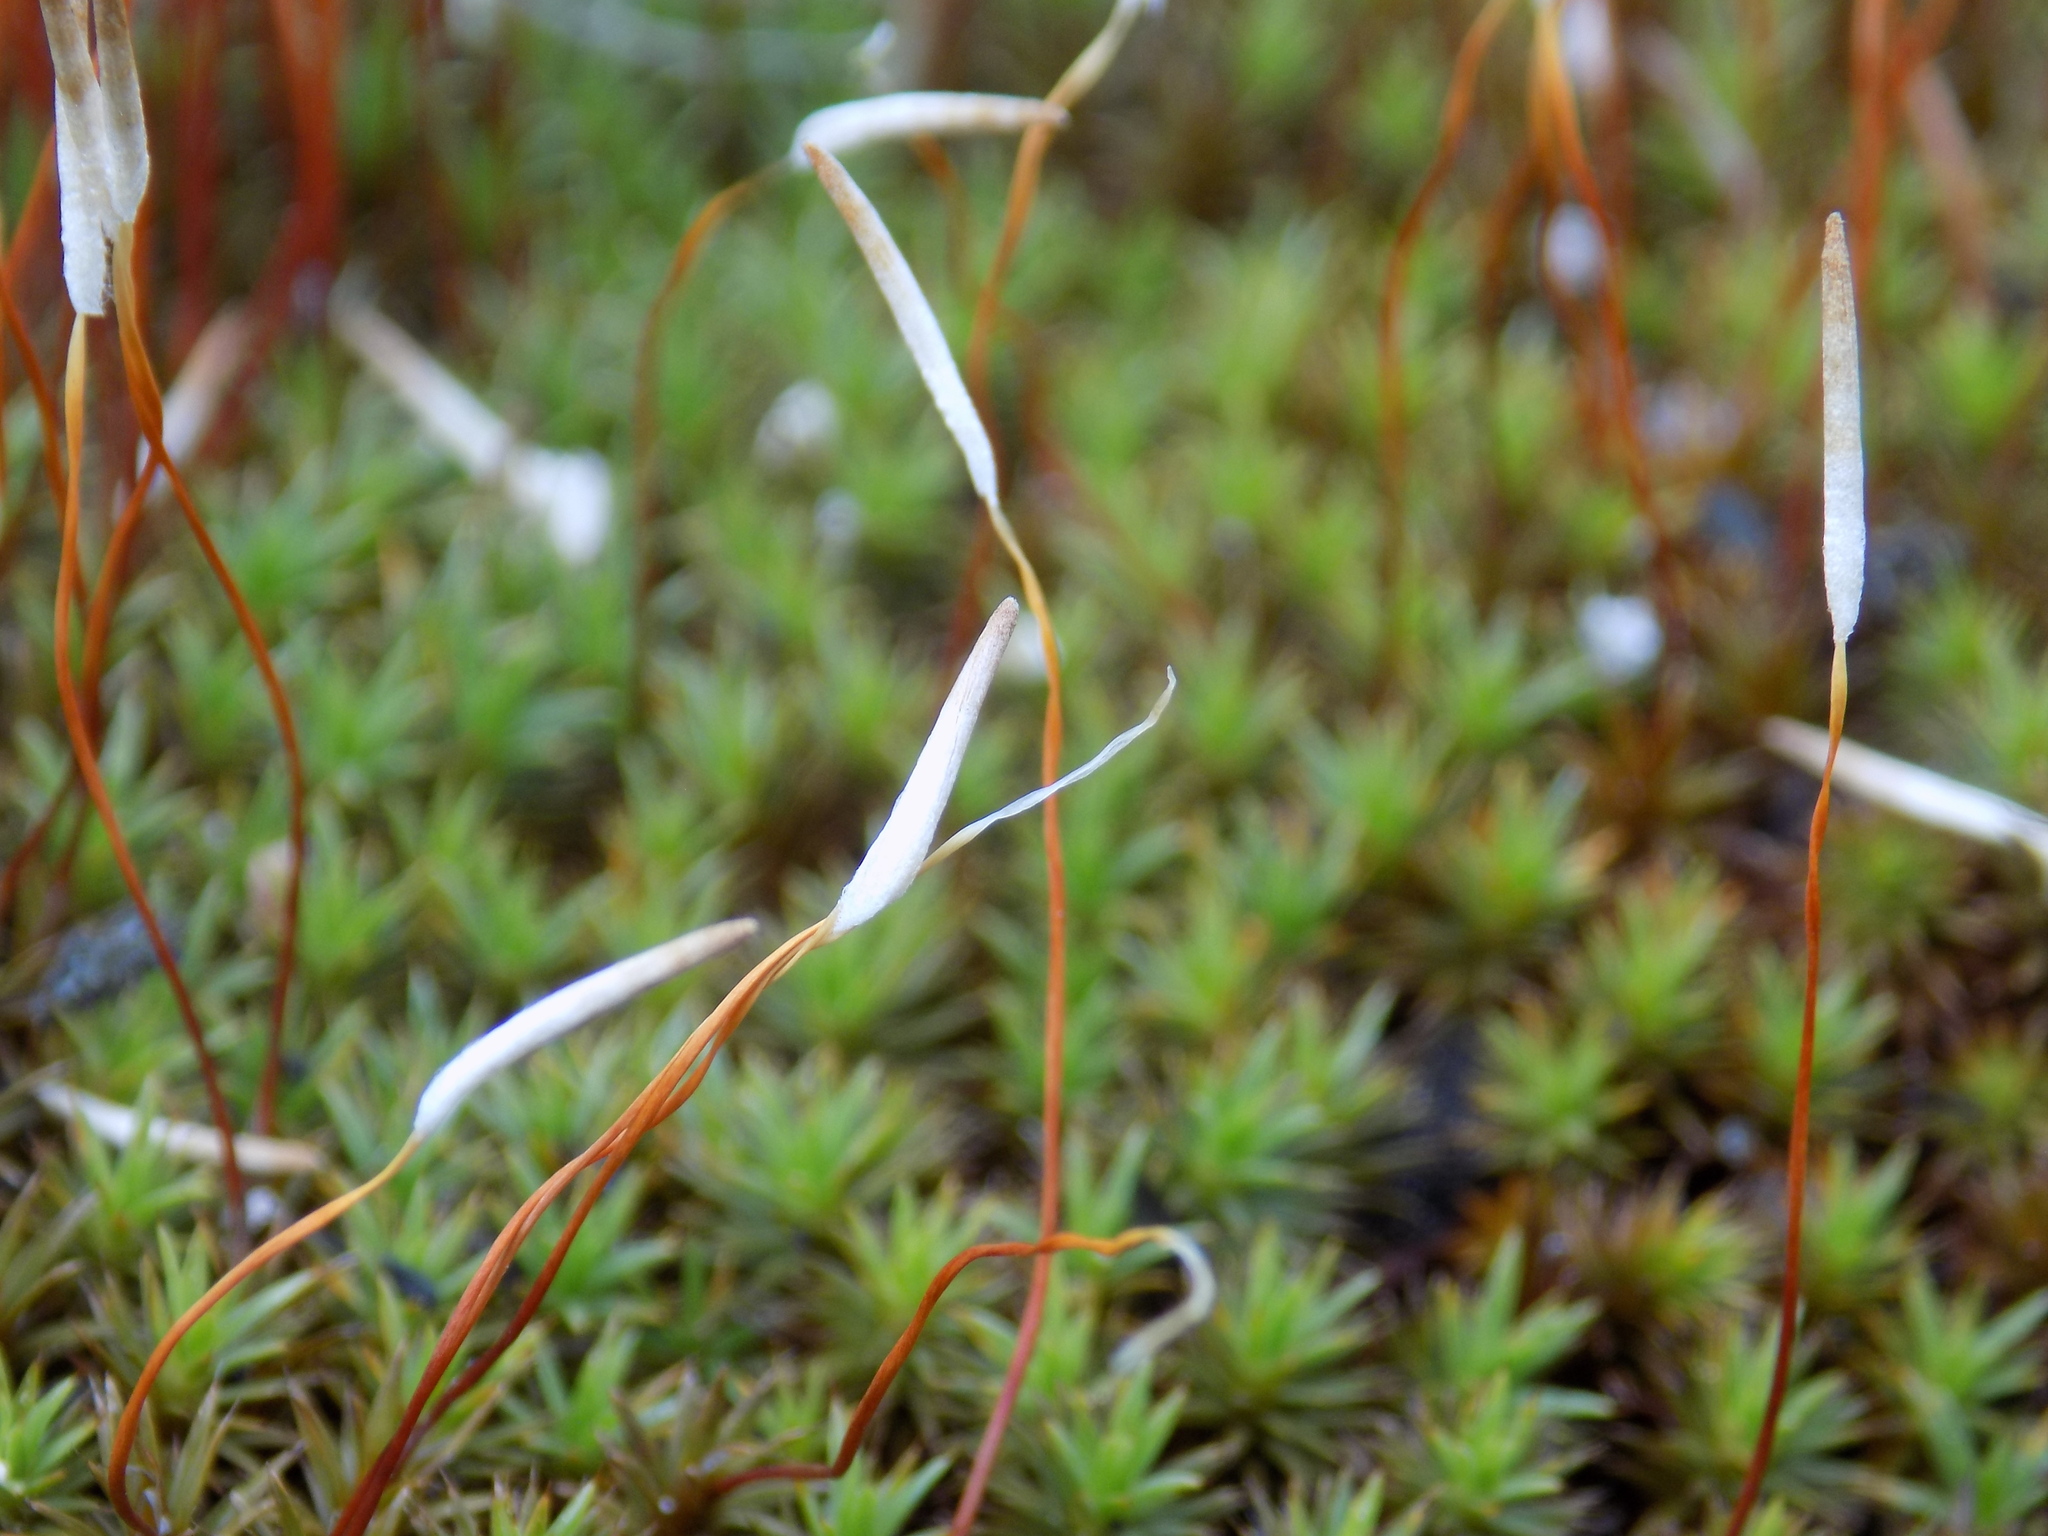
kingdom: Plantae
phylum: Bryophyta
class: Polytrichopsida
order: Polytrichales
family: Polytrichaceae
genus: Polytrichum
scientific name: Polytrichum piliferum
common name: Bristly haircap
